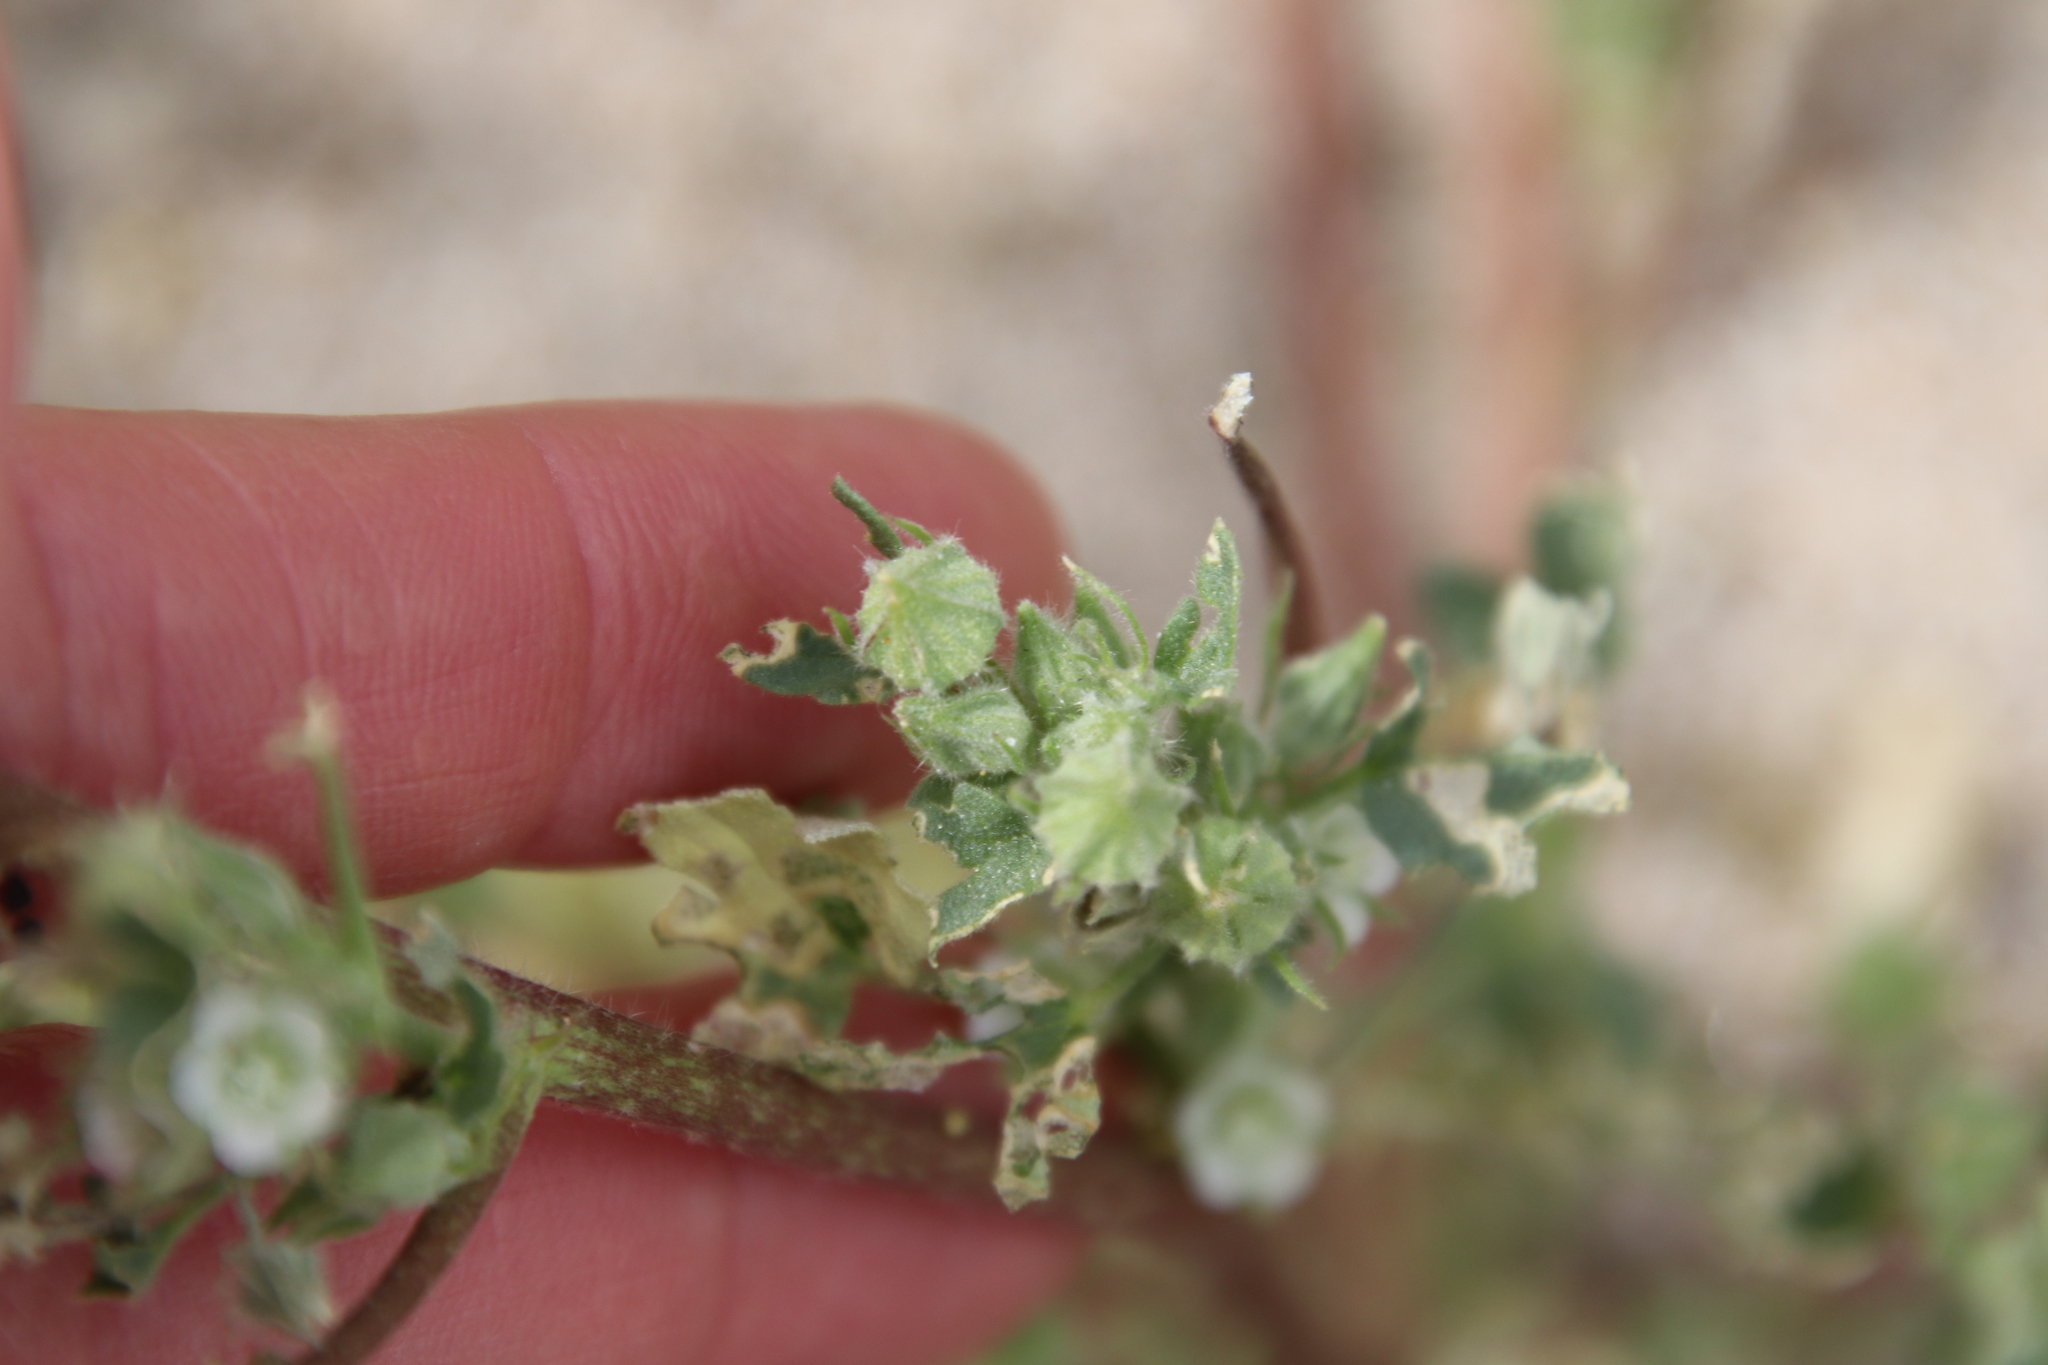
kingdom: Plantae
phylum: Tracheophyta
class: Magnoliopsida
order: Malvales
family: Malvaceae
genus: Eremalche
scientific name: Eremalche exilis
